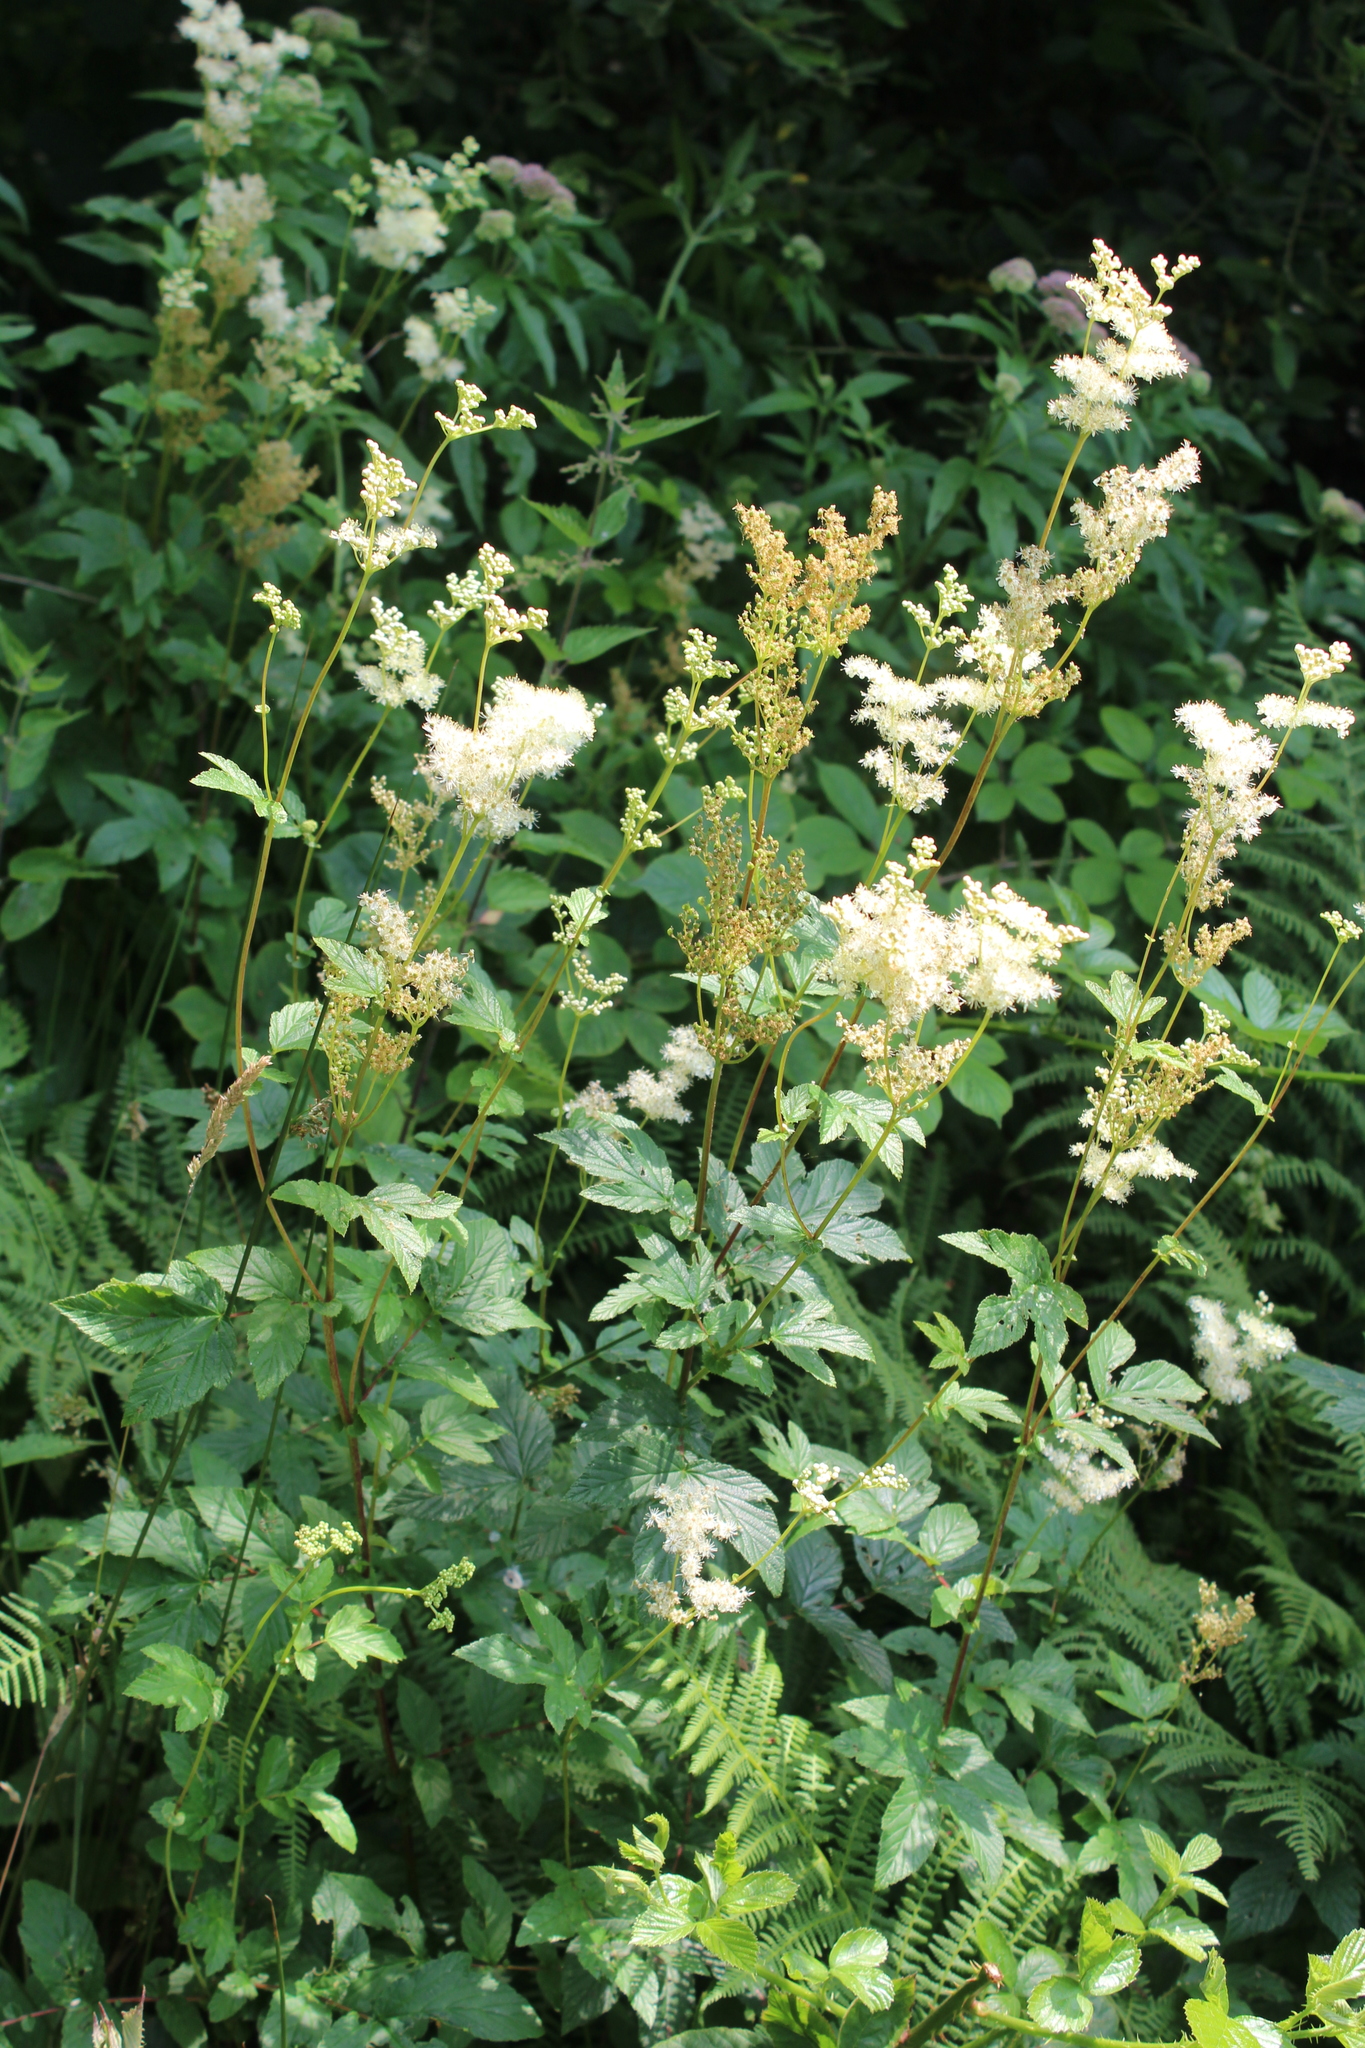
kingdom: Plantae
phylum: Tracheophyta
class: Magnoliopsida
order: Rosales
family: Rosaceae
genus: Filipendula
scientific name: Filipendula ulmaria
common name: Meadowsweet
